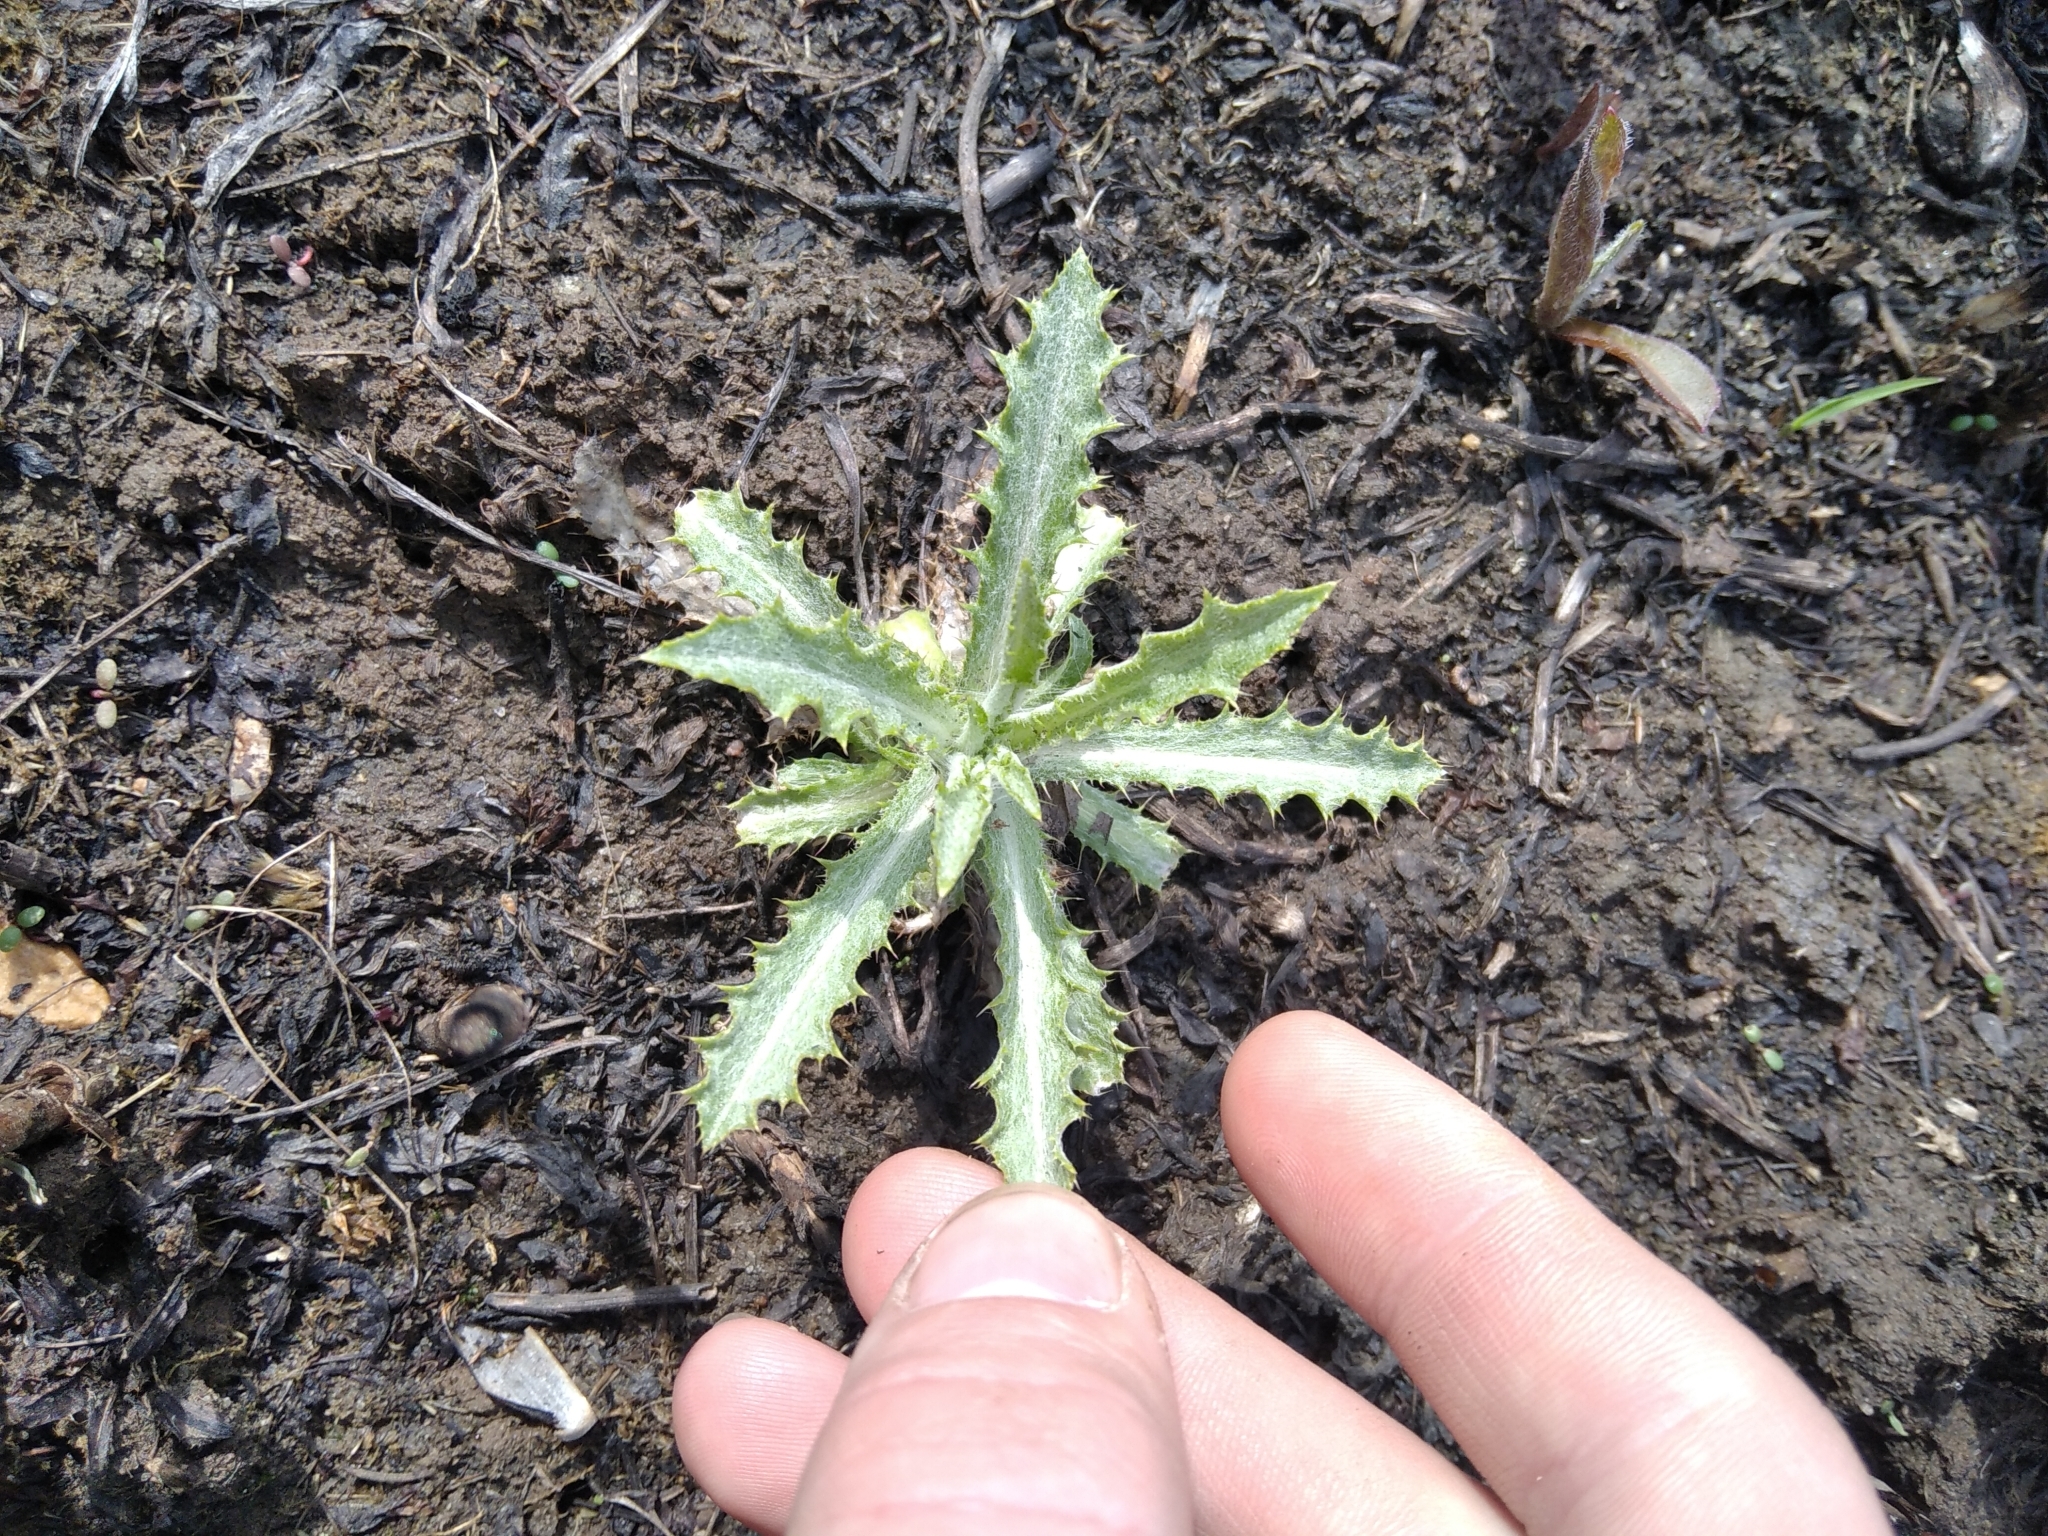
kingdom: Plantae
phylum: Tracheophyta
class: Magnoliopsida
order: Asterales
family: Asteraceae
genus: Carlina
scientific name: Carlina biebersteinii
